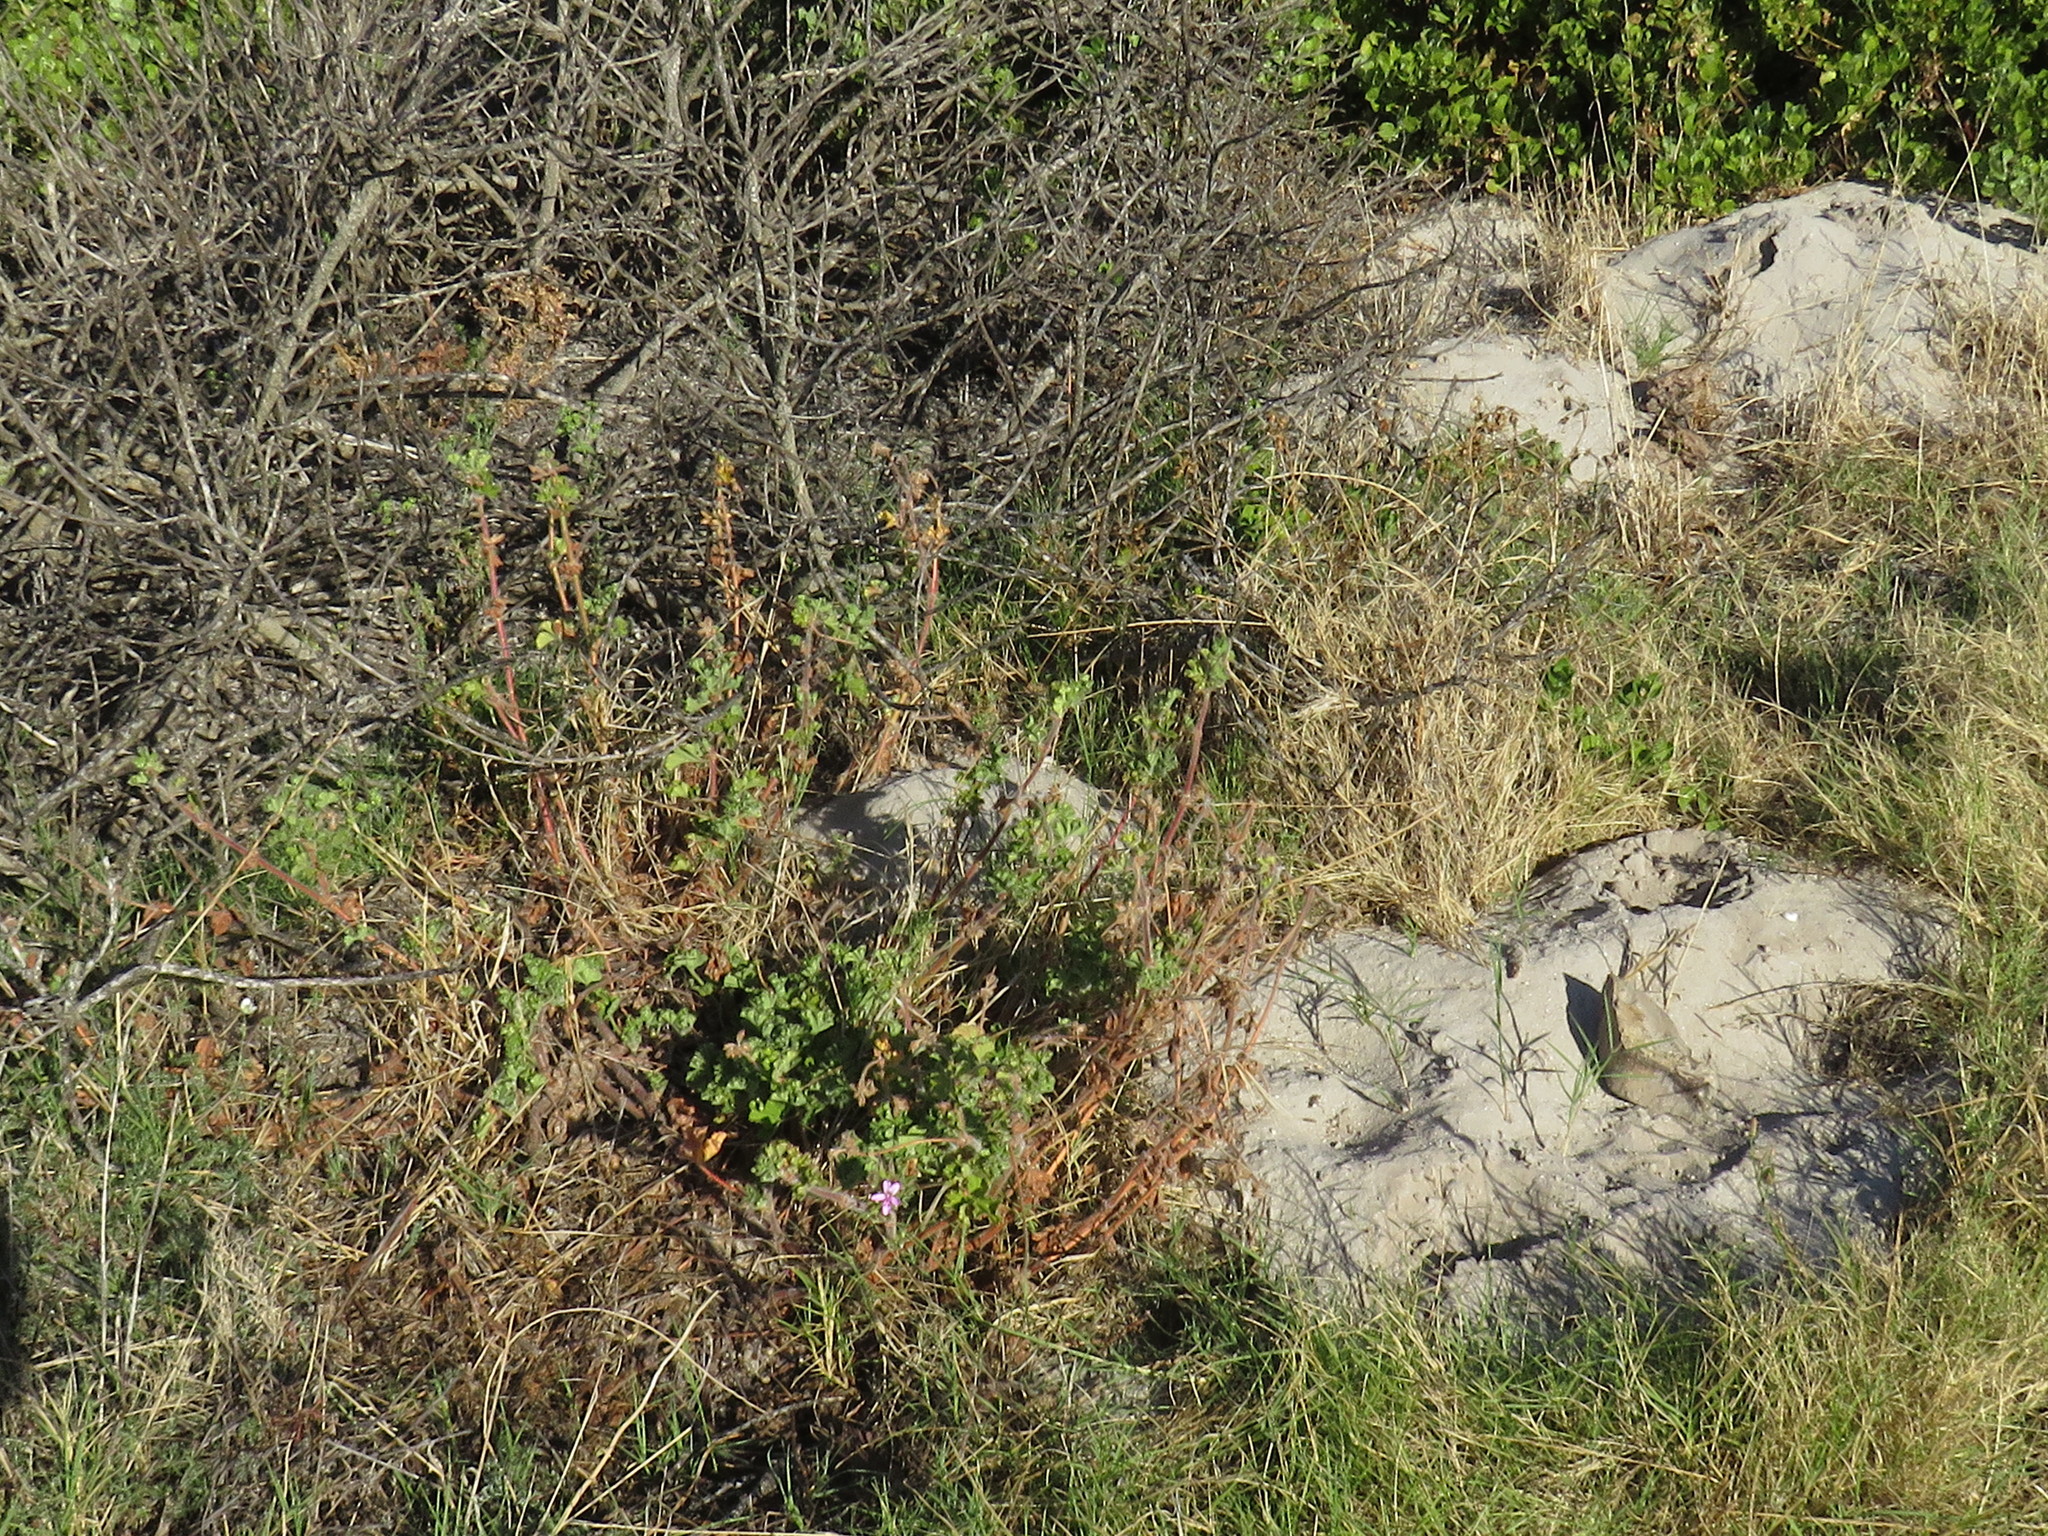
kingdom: Plantae
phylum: Tracheophyta
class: Magnoliopsida
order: Geraniales
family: Geraniaceae
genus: Pelargonium
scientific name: Pelargonium capitatum
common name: Rose scented geranium
